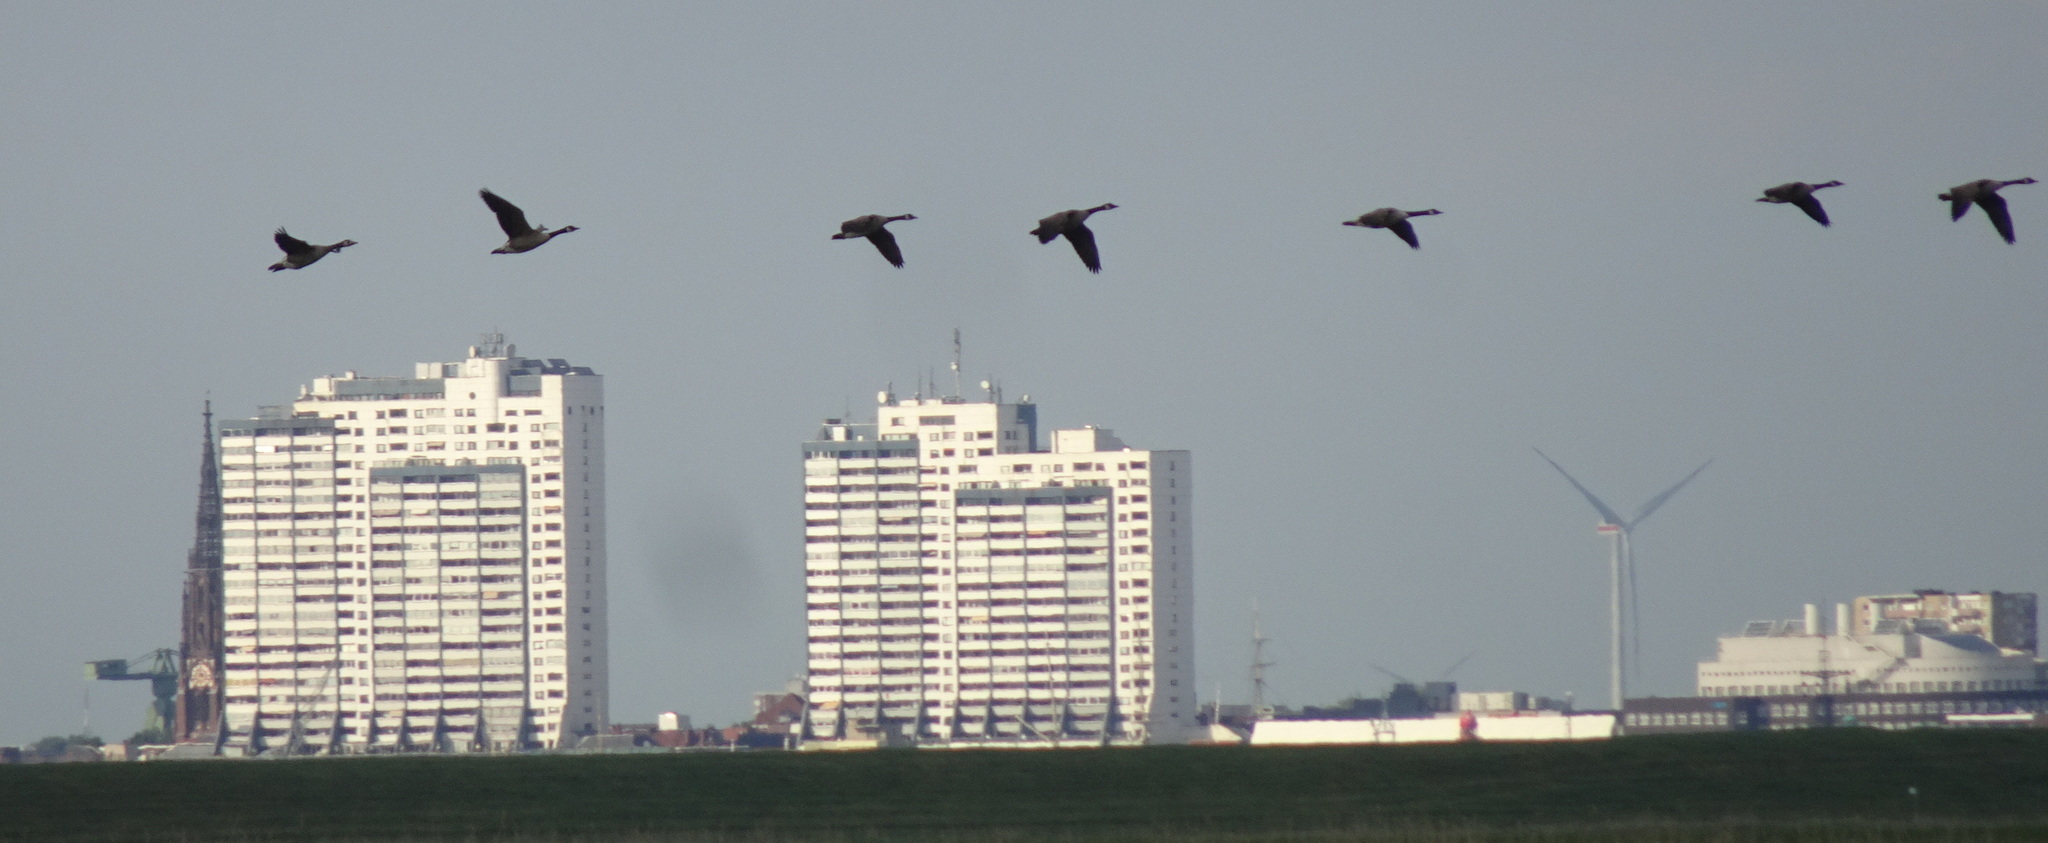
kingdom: Animalia
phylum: Chordata
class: Aves
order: Anseriformes
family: Anatidae
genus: Branta
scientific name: Branta canadensis
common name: Canada goose
